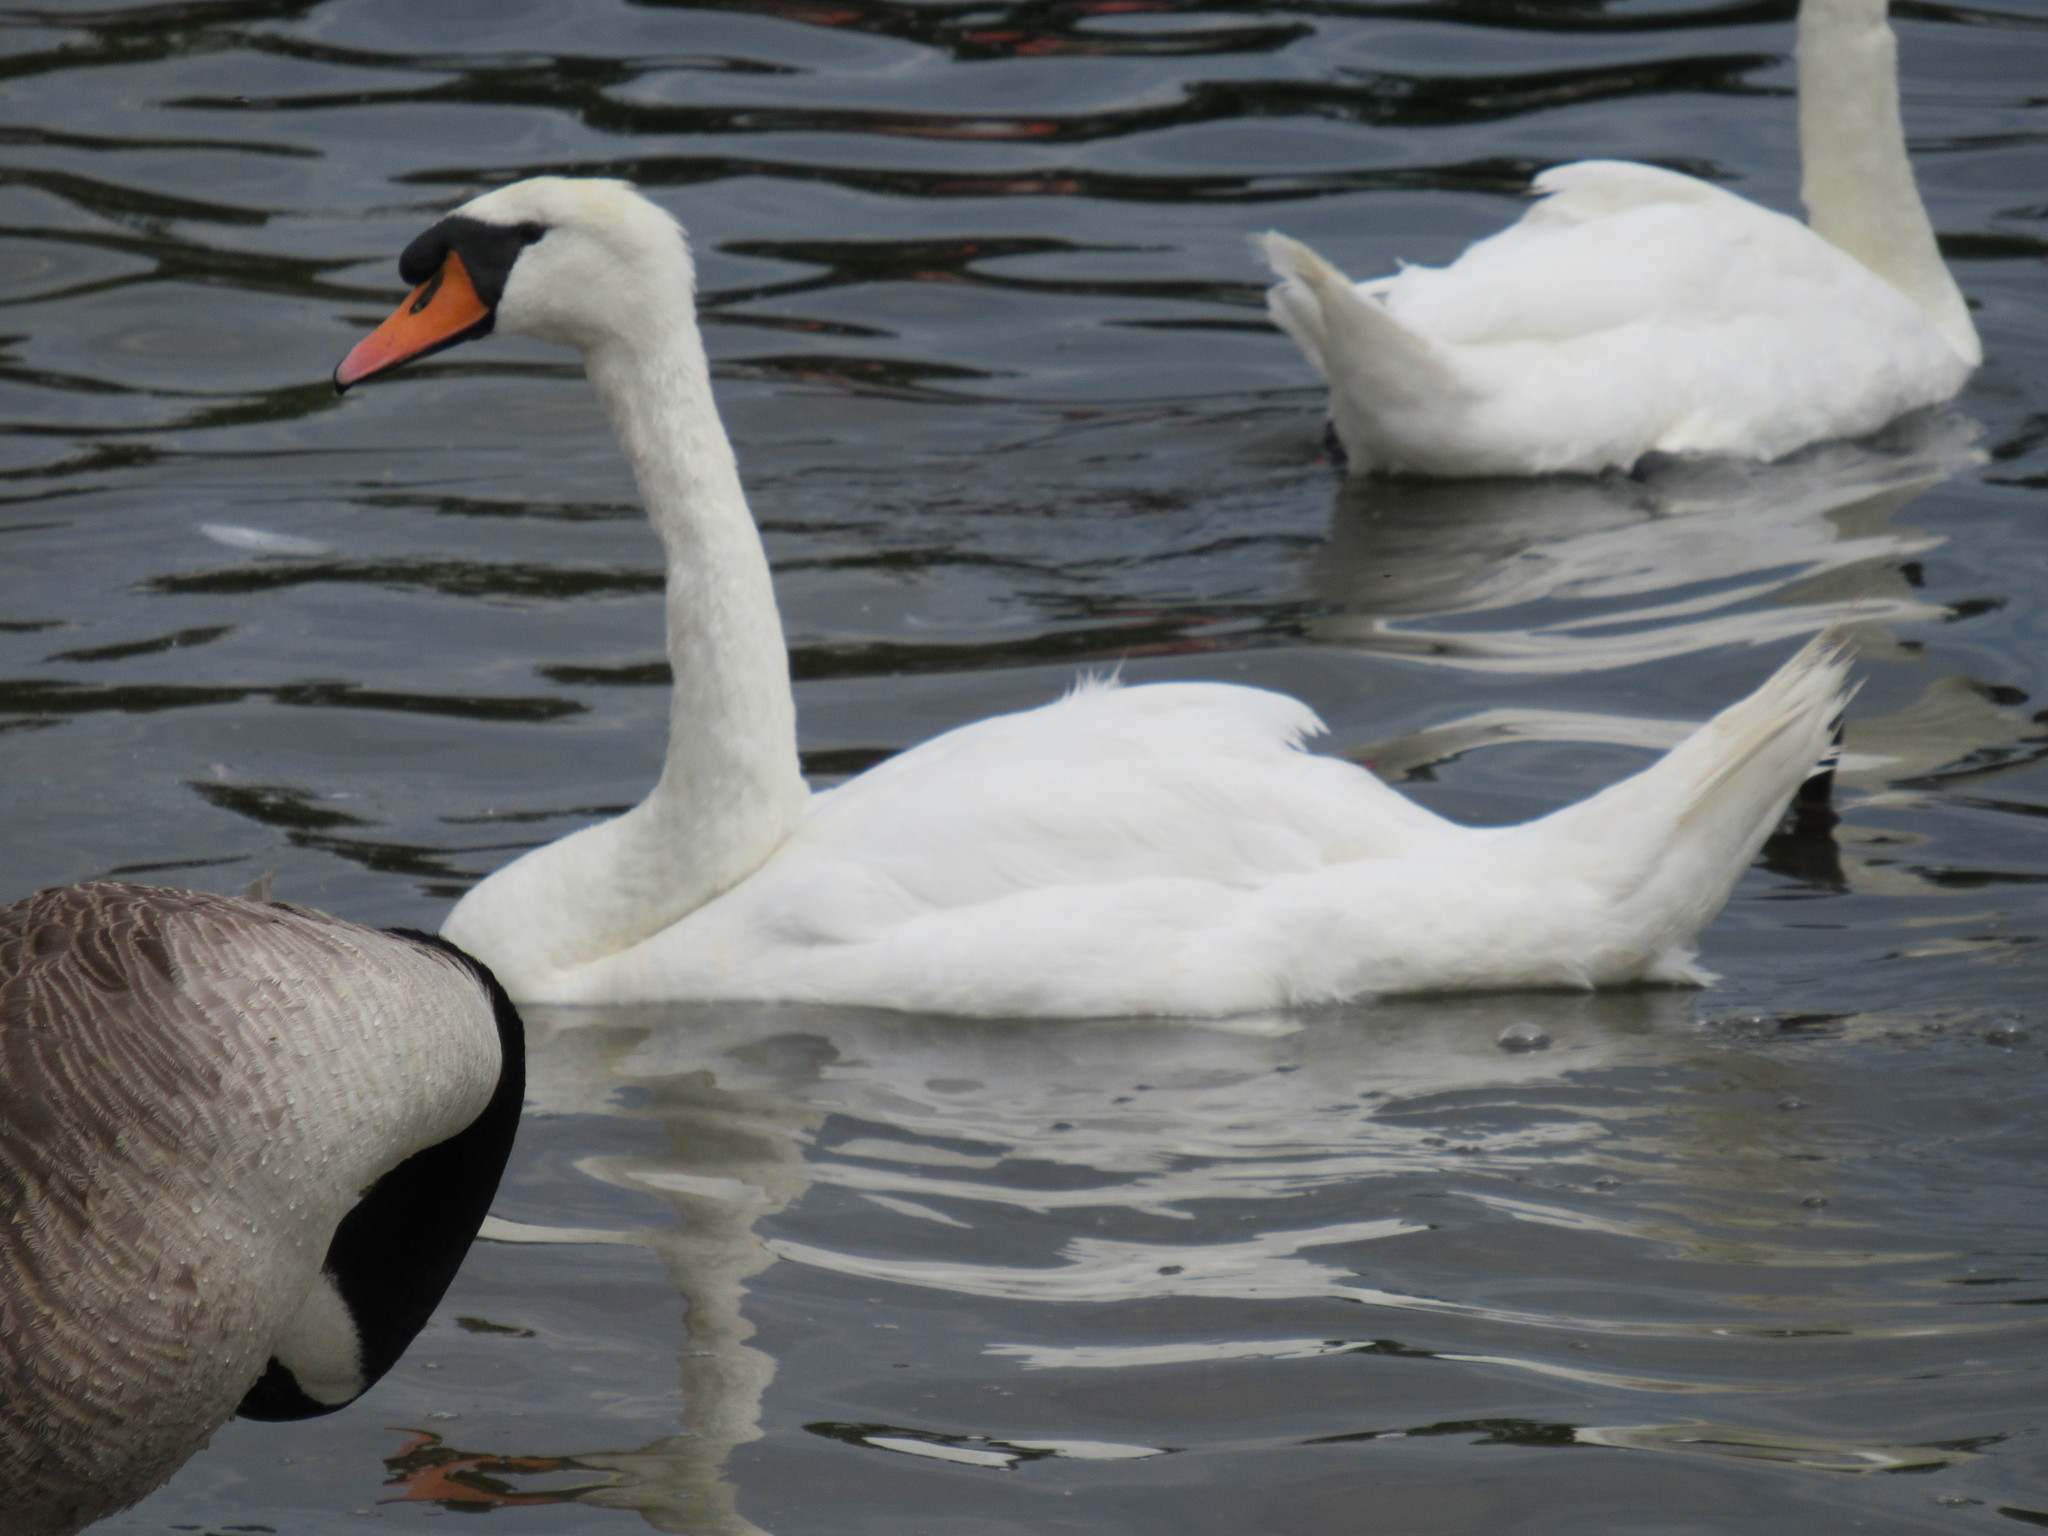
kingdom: Animalia
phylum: Chordata
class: Aves
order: Anseriformes
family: Anatidae
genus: Cygnus
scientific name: Cygnus olor
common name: Mute swan
